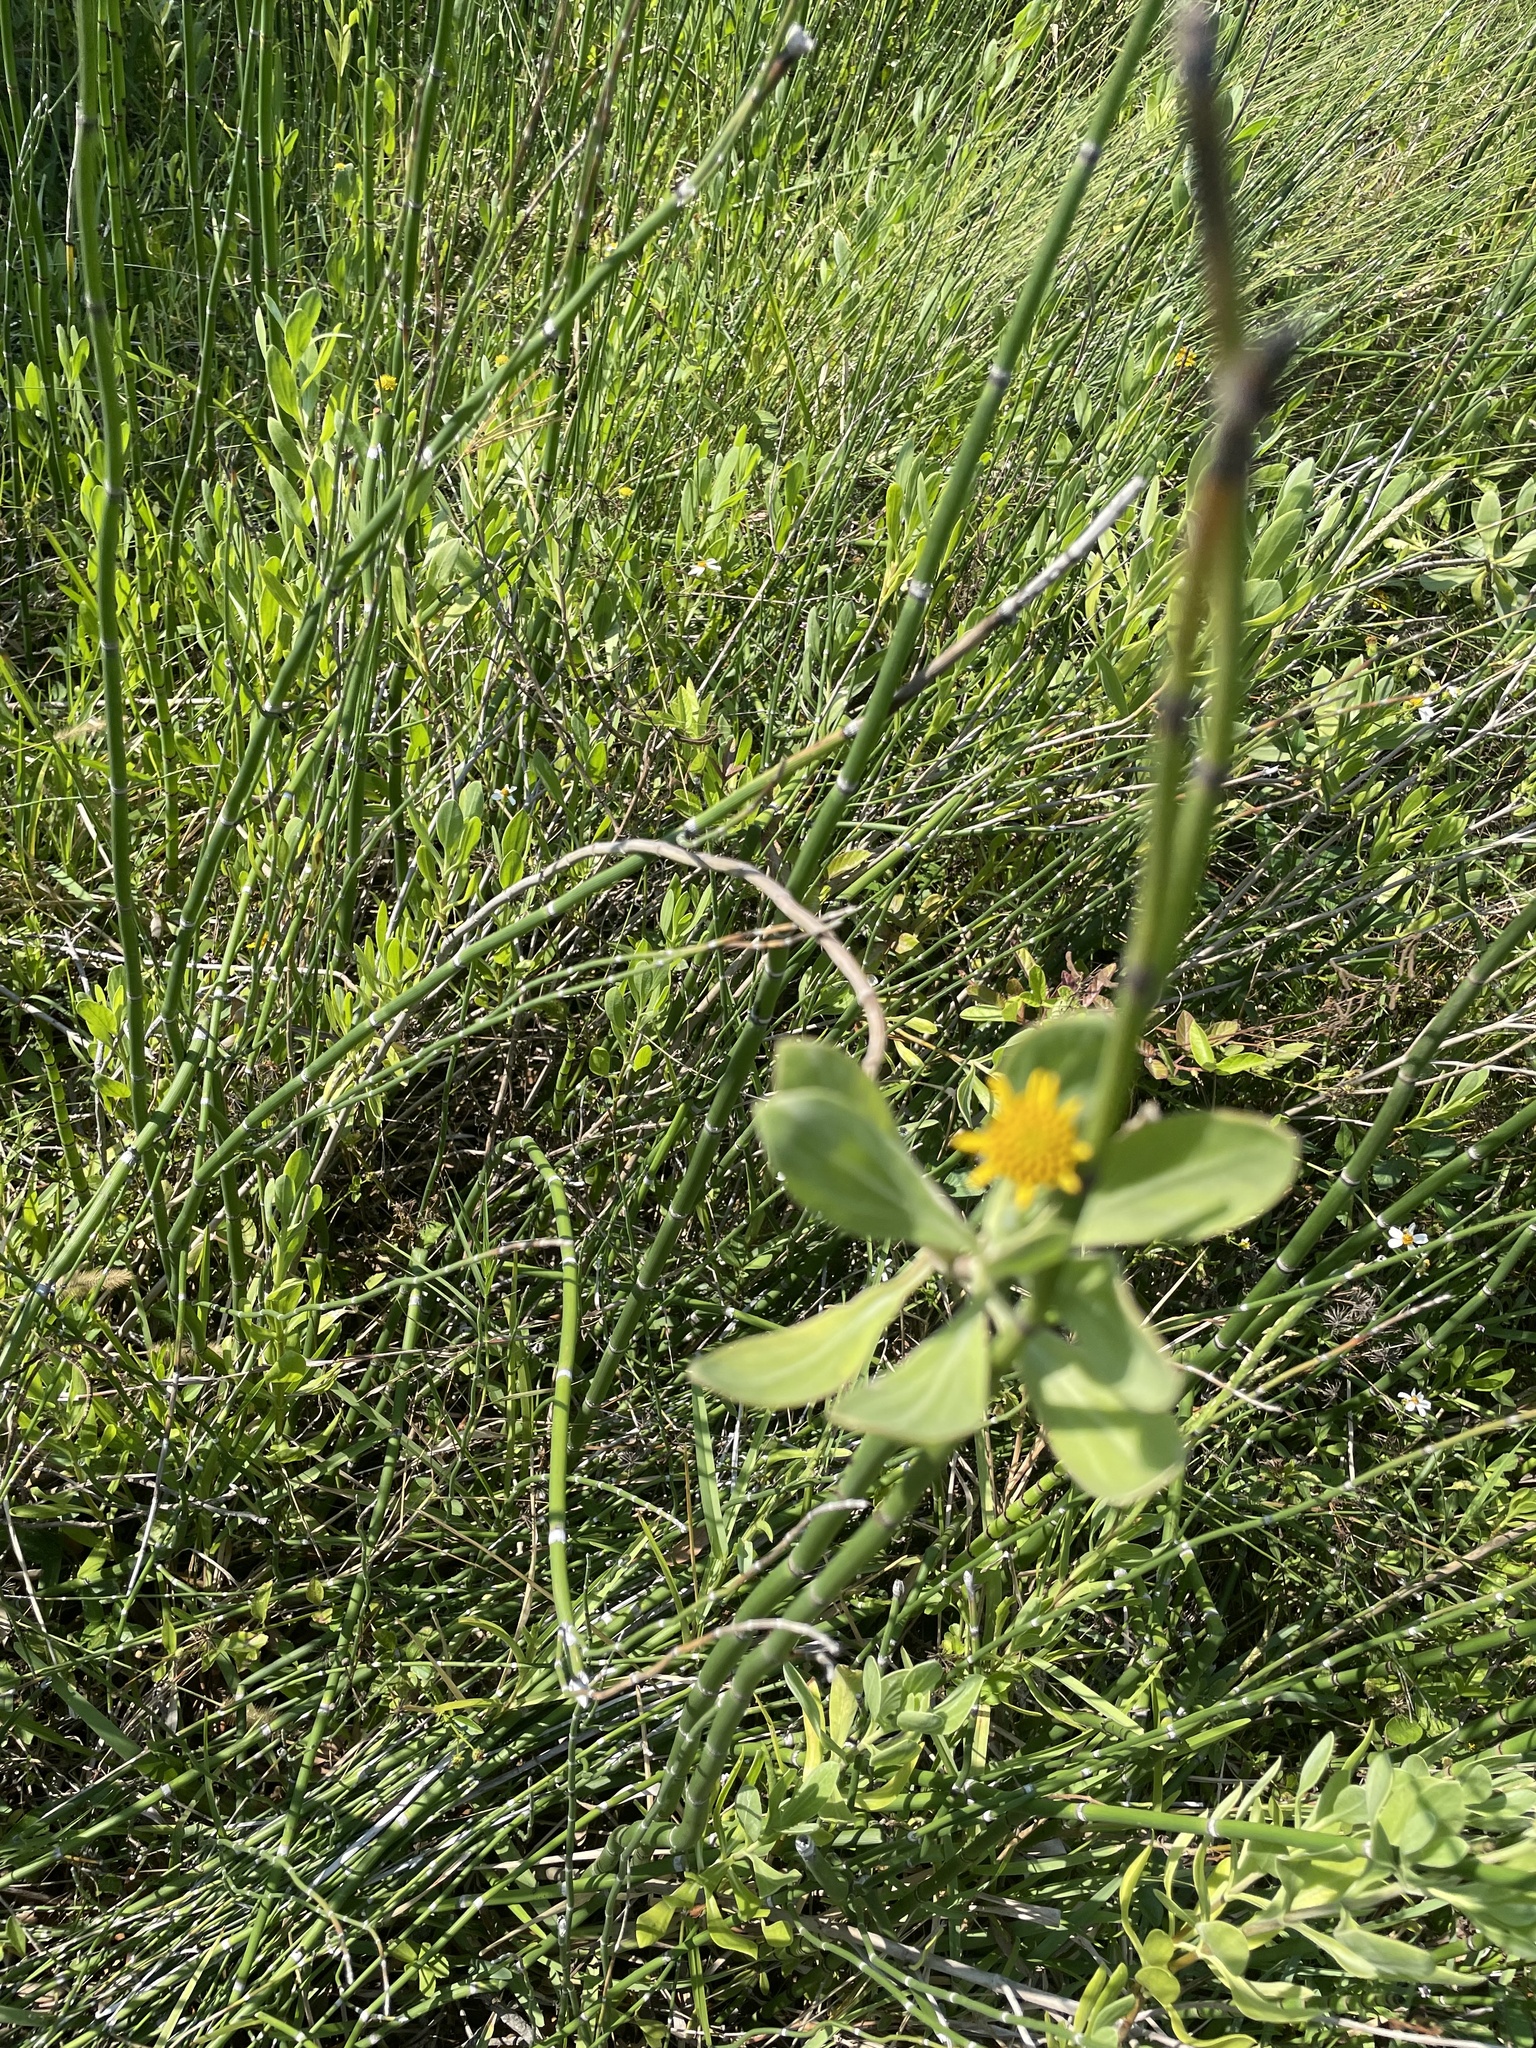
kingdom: Plantae
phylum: Tracheophyta
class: Magnoliopsida
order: Asterales
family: Asteraceae
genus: Borrichia
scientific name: Borrichia frutescens
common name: Sea oxeye
